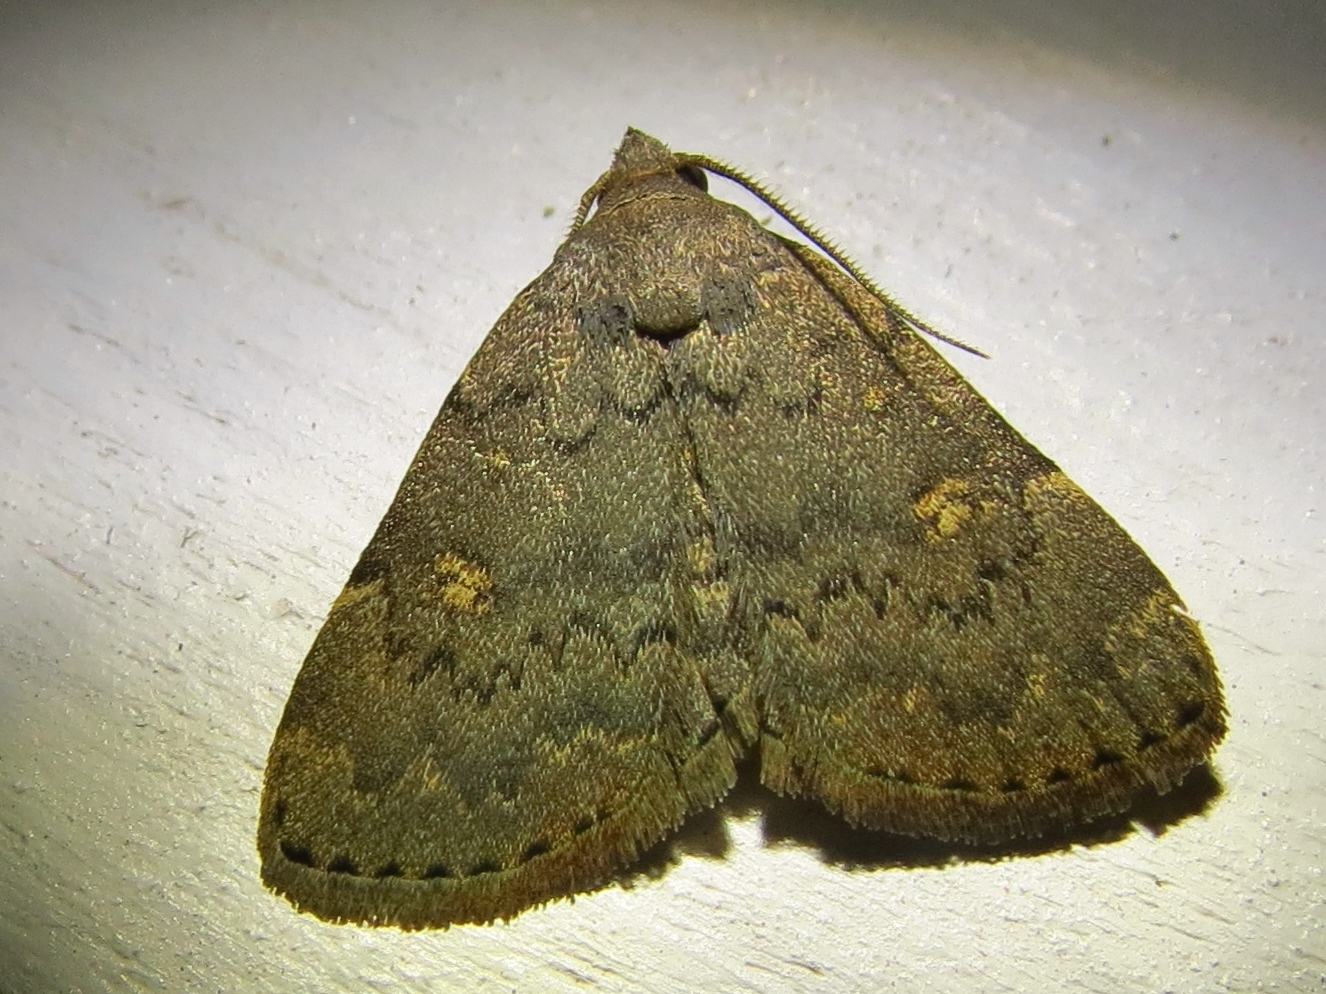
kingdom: Animalia
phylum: Arthropoda
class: Insecta
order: Lepidoptera
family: Erebidae
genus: Idia
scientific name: Idia aemula
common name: Common idia moth
